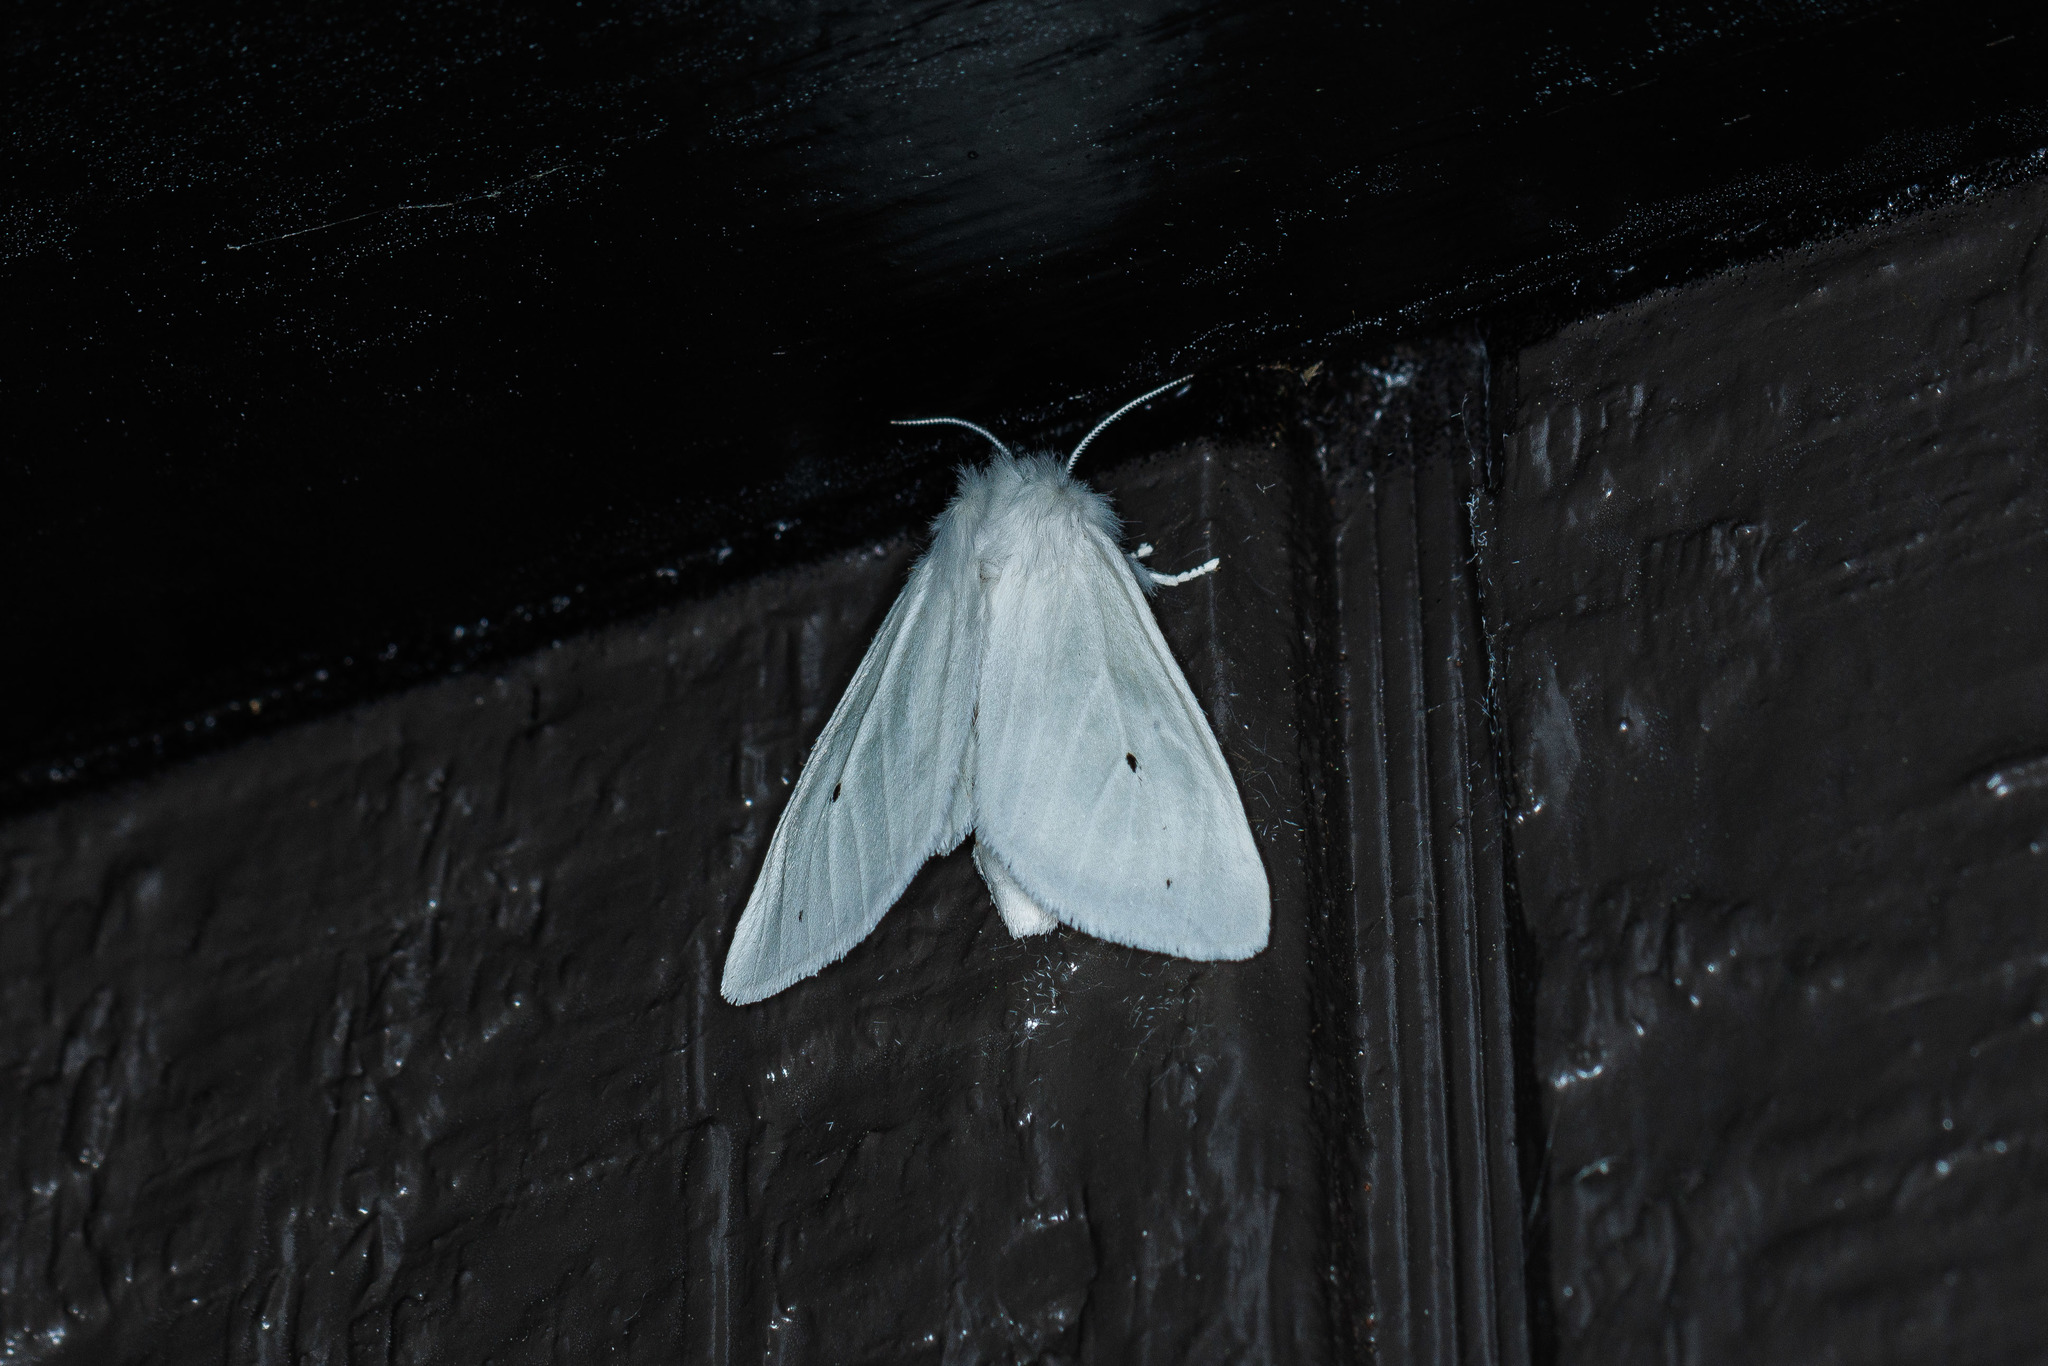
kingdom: Animalia
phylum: Arthropoda
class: Insecta
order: Lepidoptera
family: Erebidae
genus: Spilosoma
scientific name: Spilosoma virginica
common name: Virginia tiger moth
